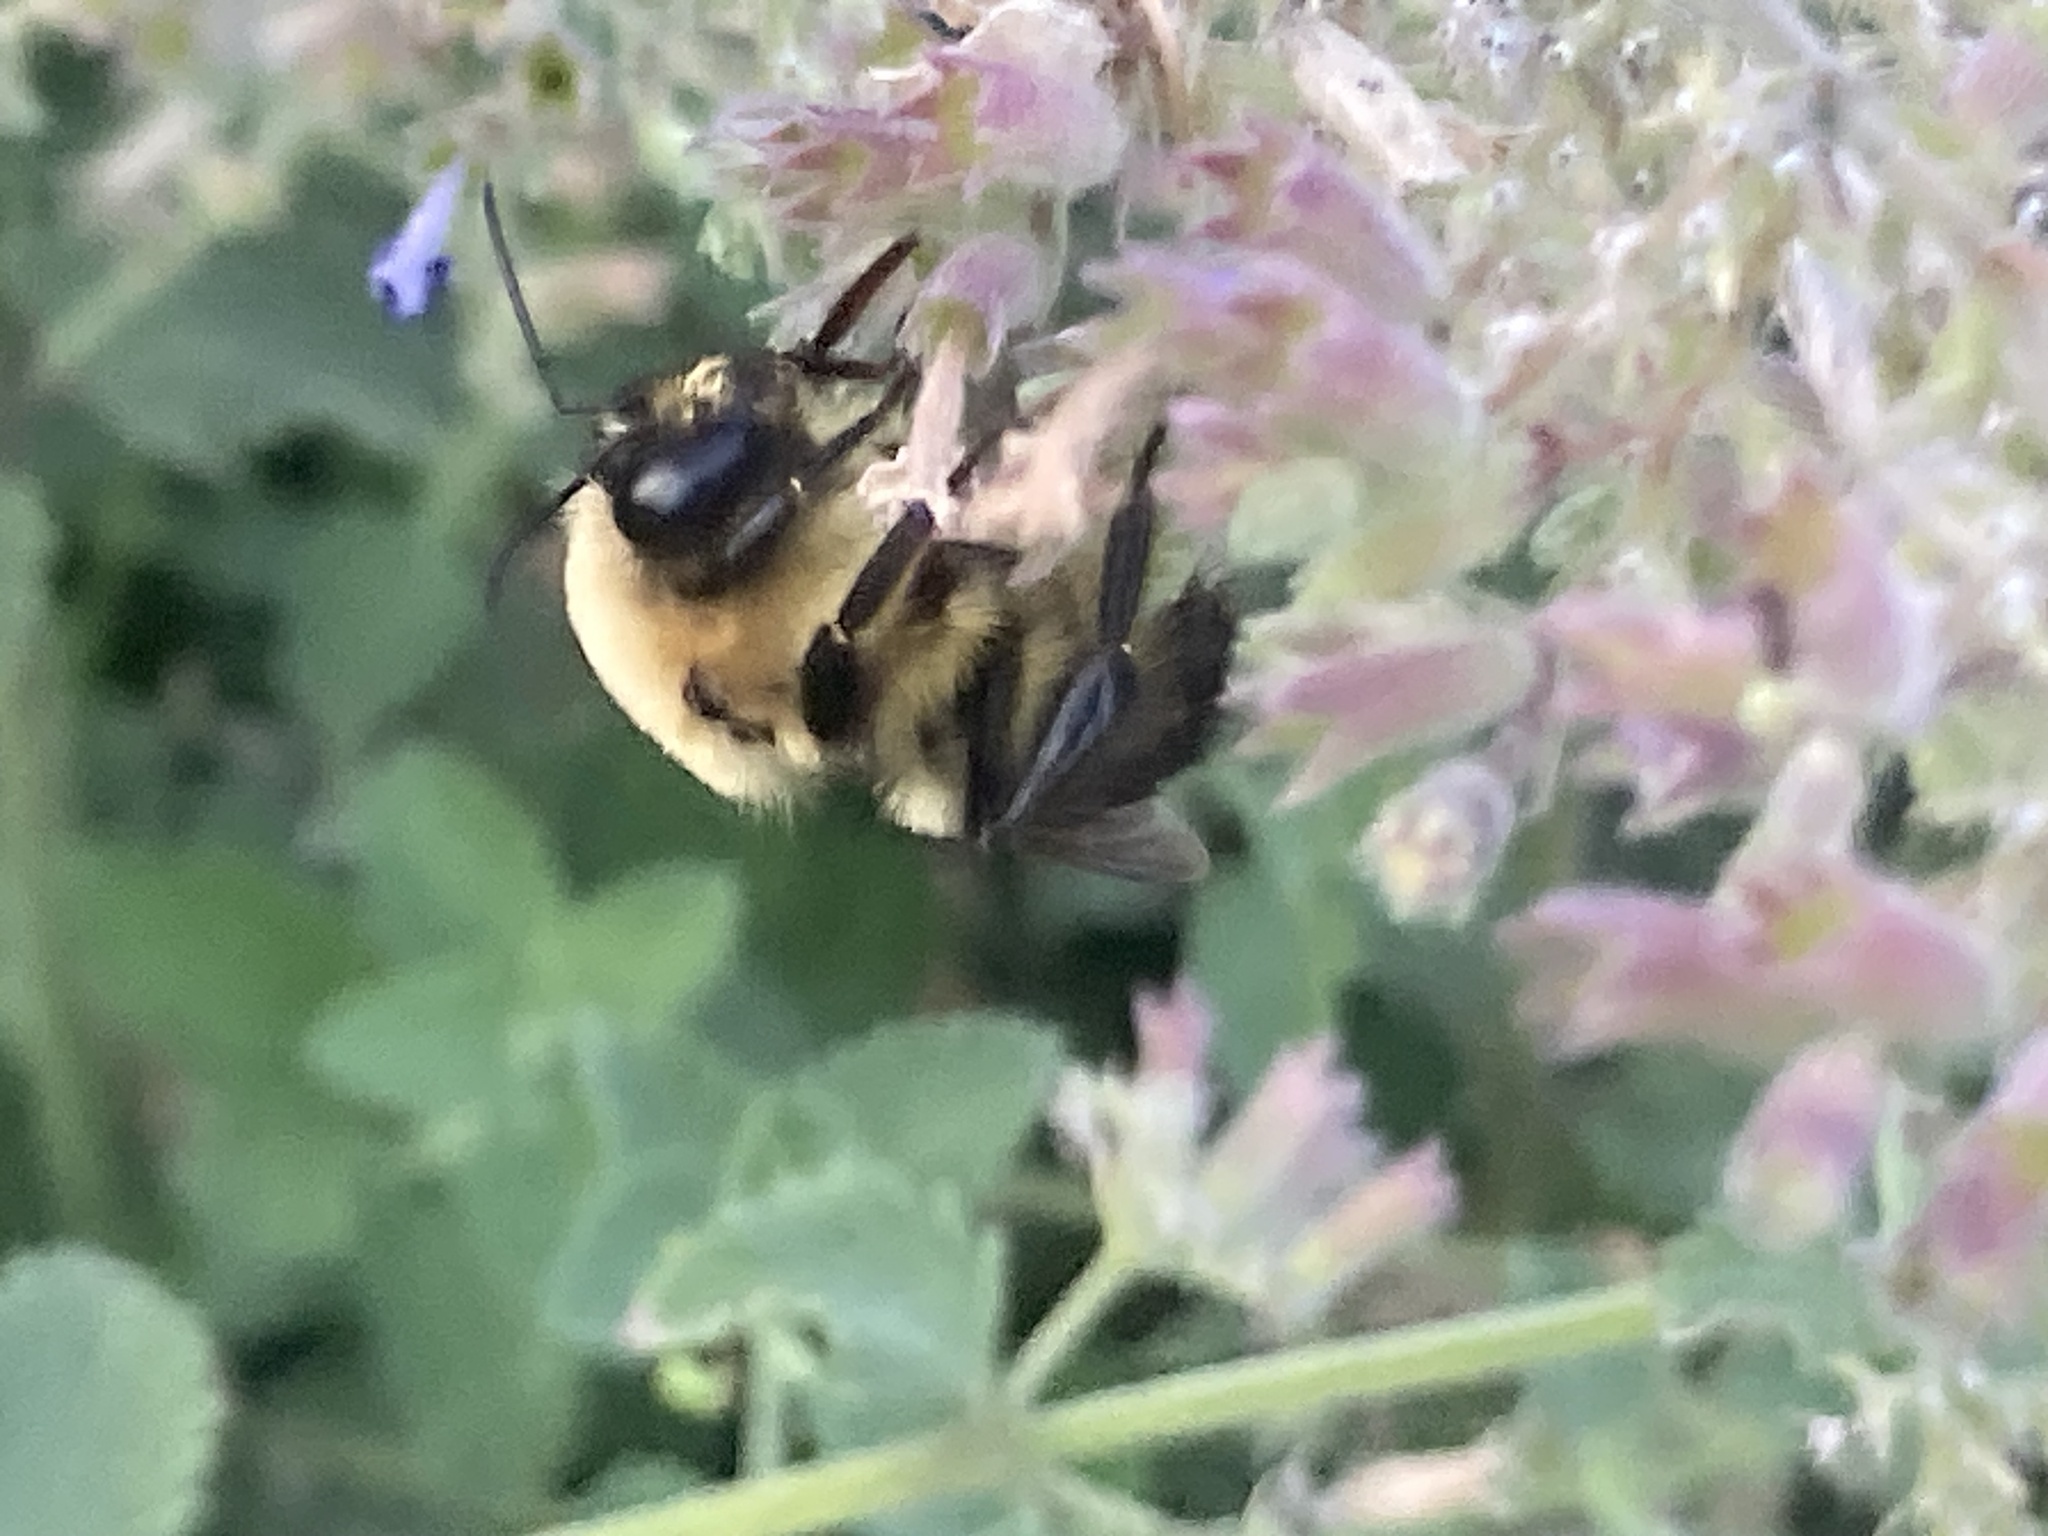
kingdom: Animalia
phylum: Arthropoda
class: Insecta
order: Hymenoptera
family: Apidae
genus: Bombus
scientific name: Bombus griseocollis
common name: Brown-belted bumble bee
